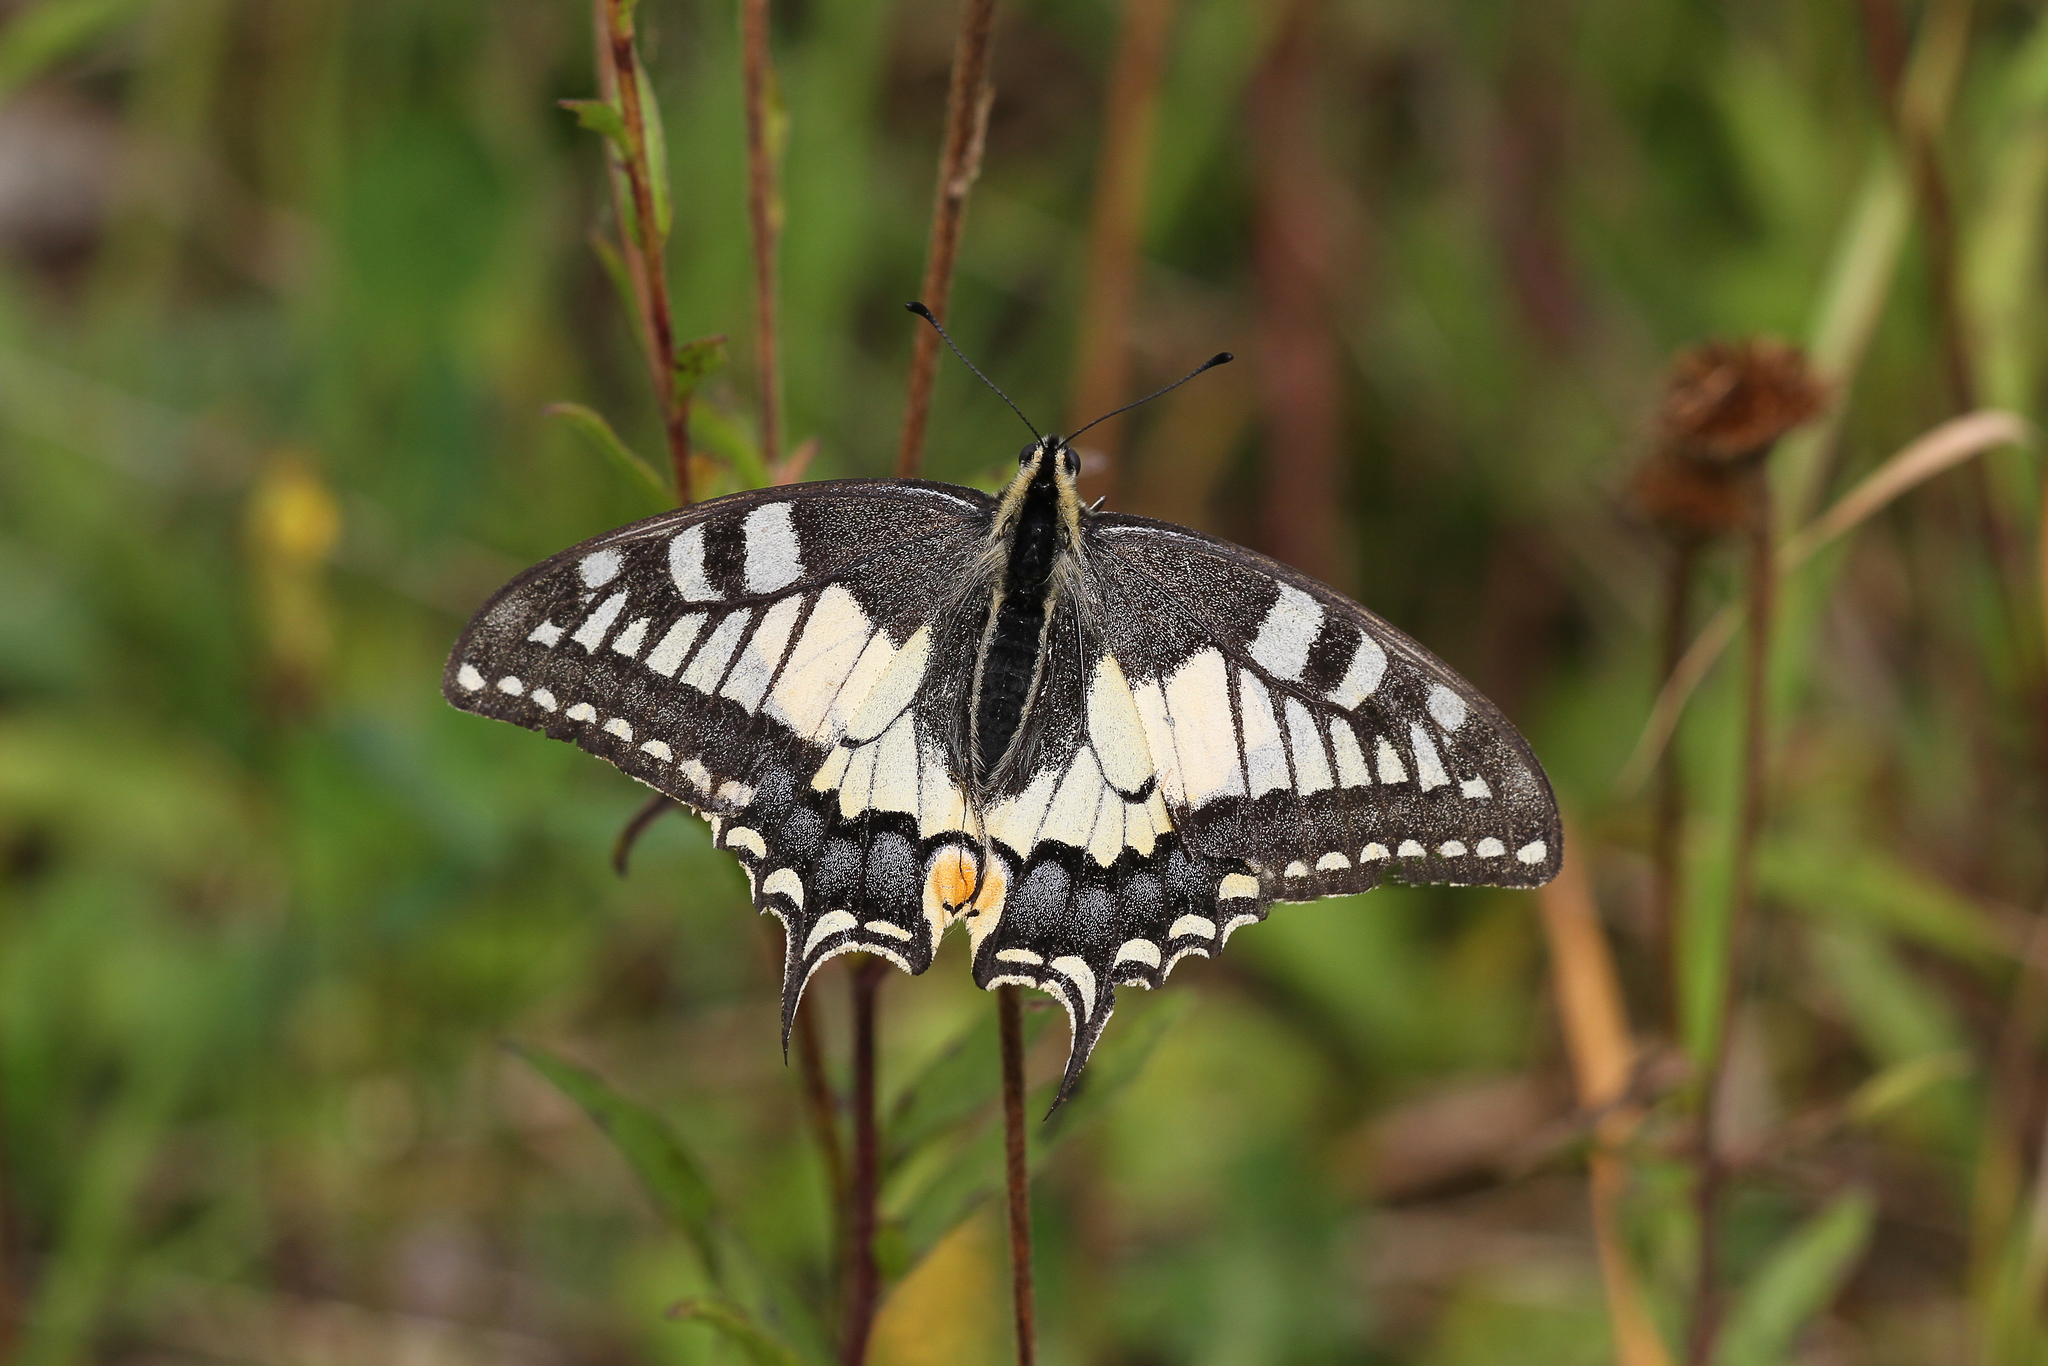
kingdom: Animalia
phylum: Arthropoda
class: Insecta
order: Lepidoptera
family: Papilionidae
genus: Papilio
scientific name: Papilio machaon
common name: Swallowtail
